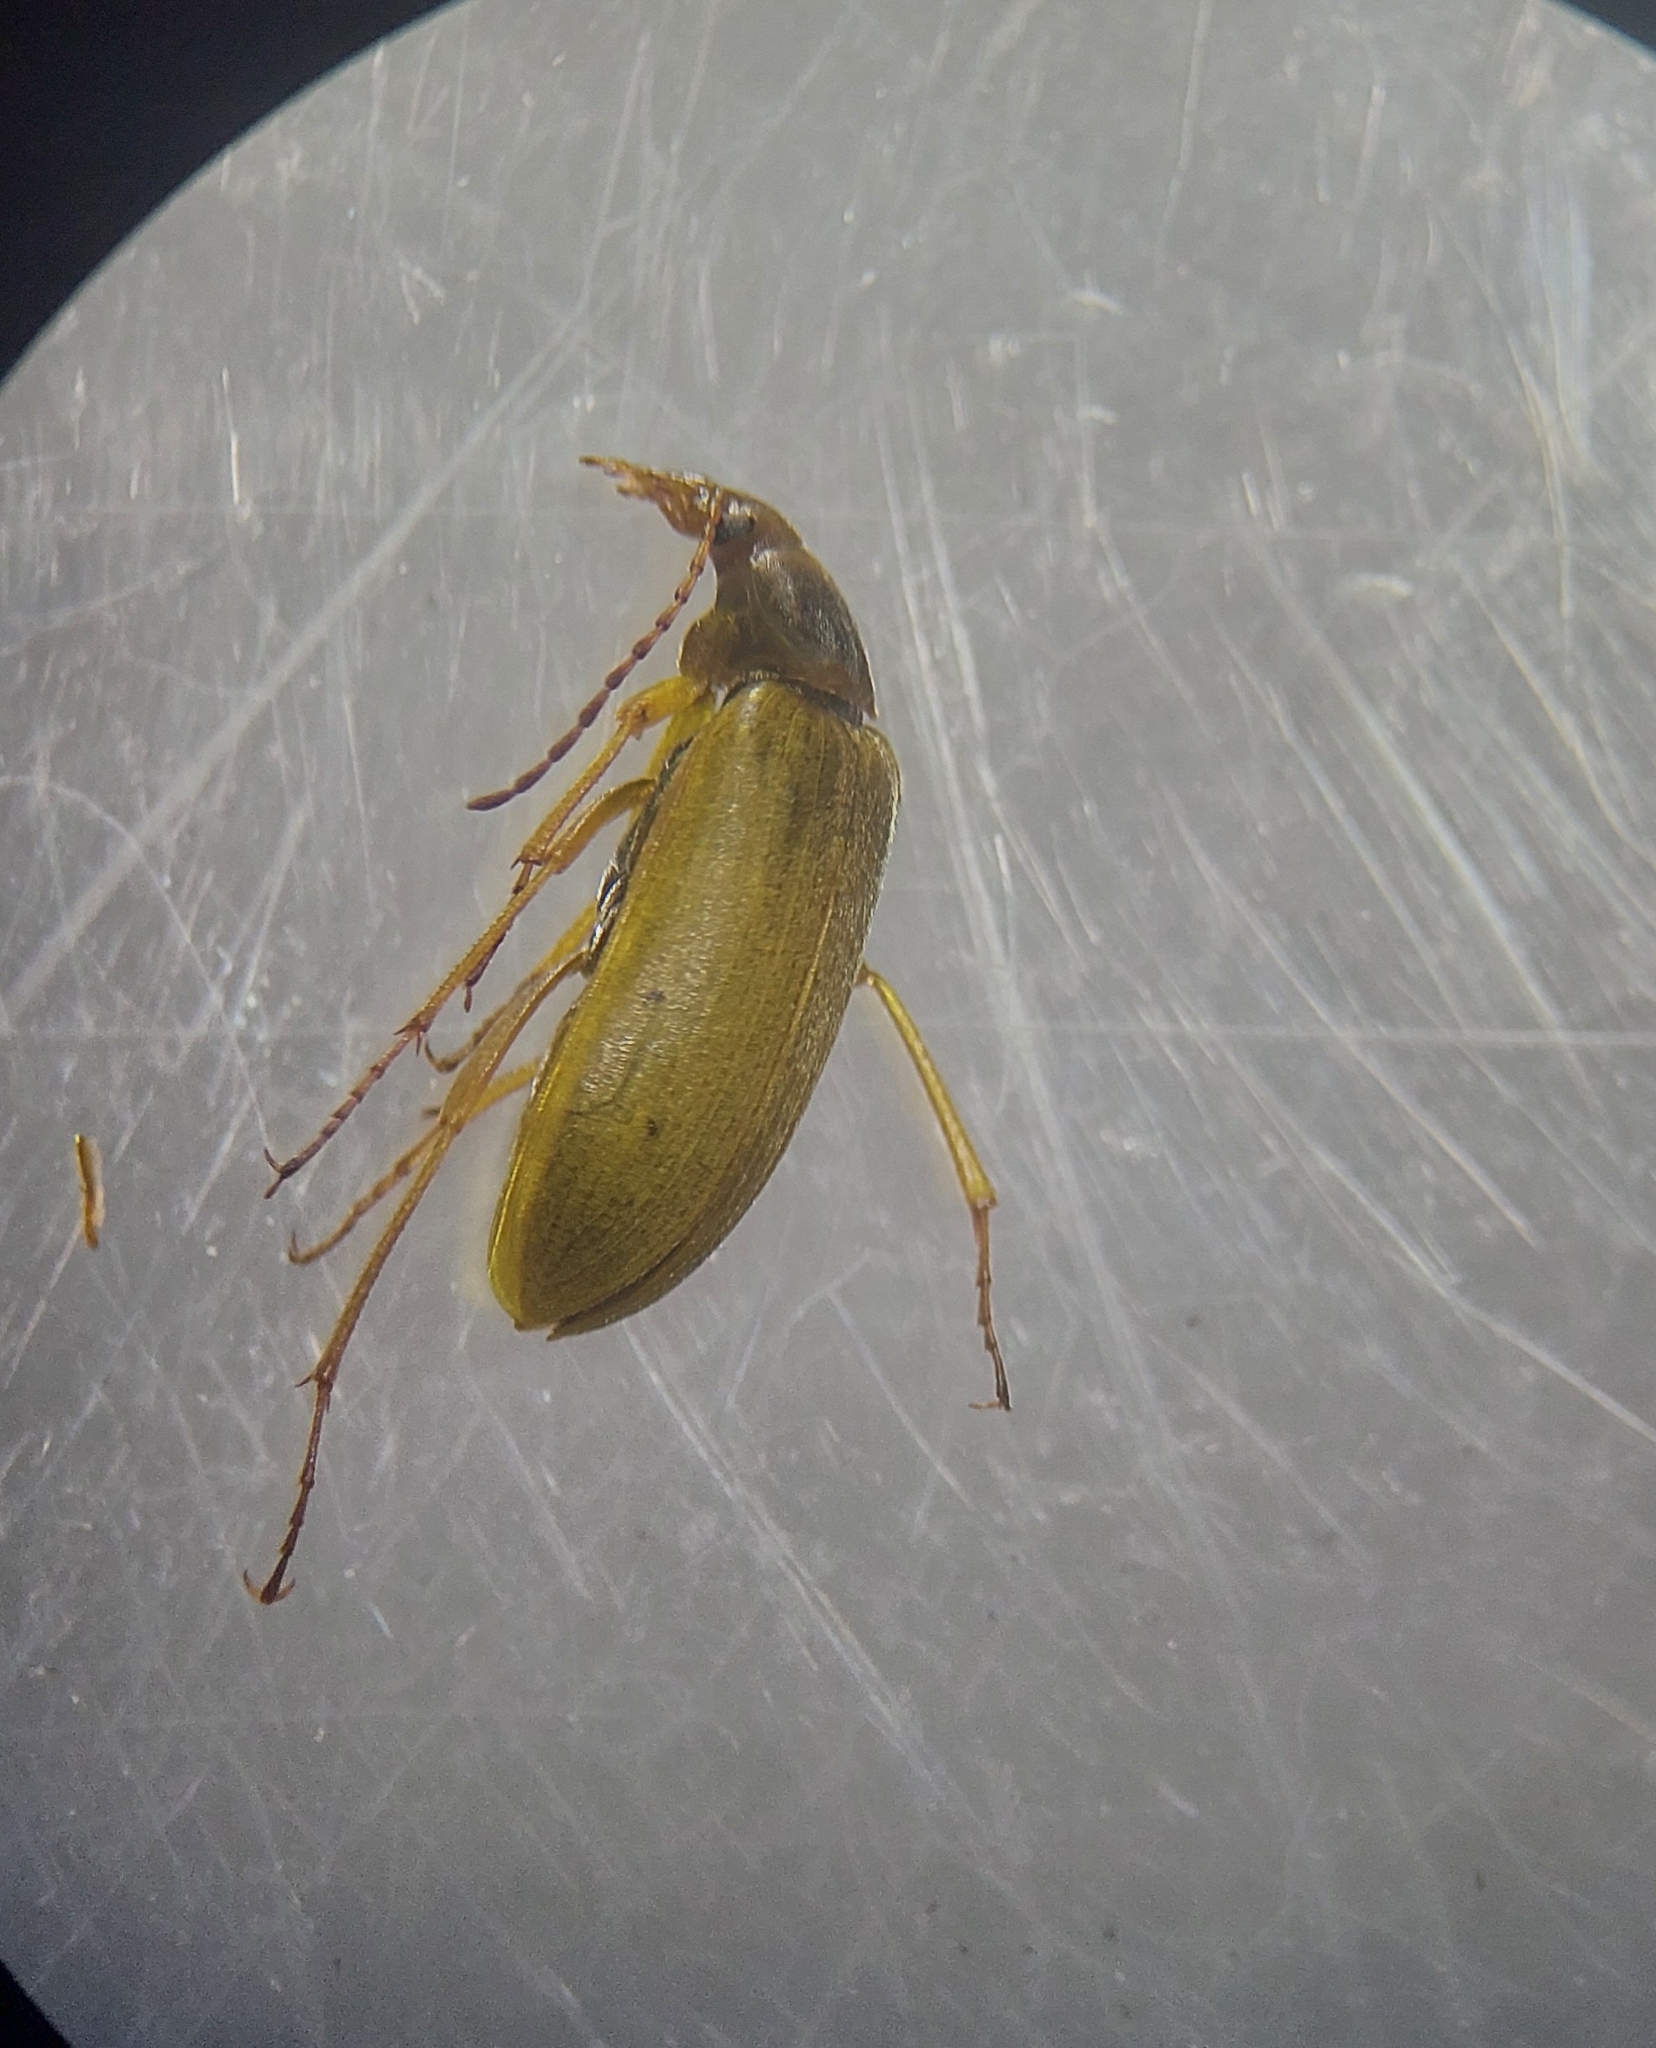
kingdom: Animalia
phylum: Arthropoda
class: Insecta
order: Coleoptera
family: Tenebrionidae
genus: Cteniopus
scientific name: Cteniopus sulphureus
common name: Sulphur beetle
